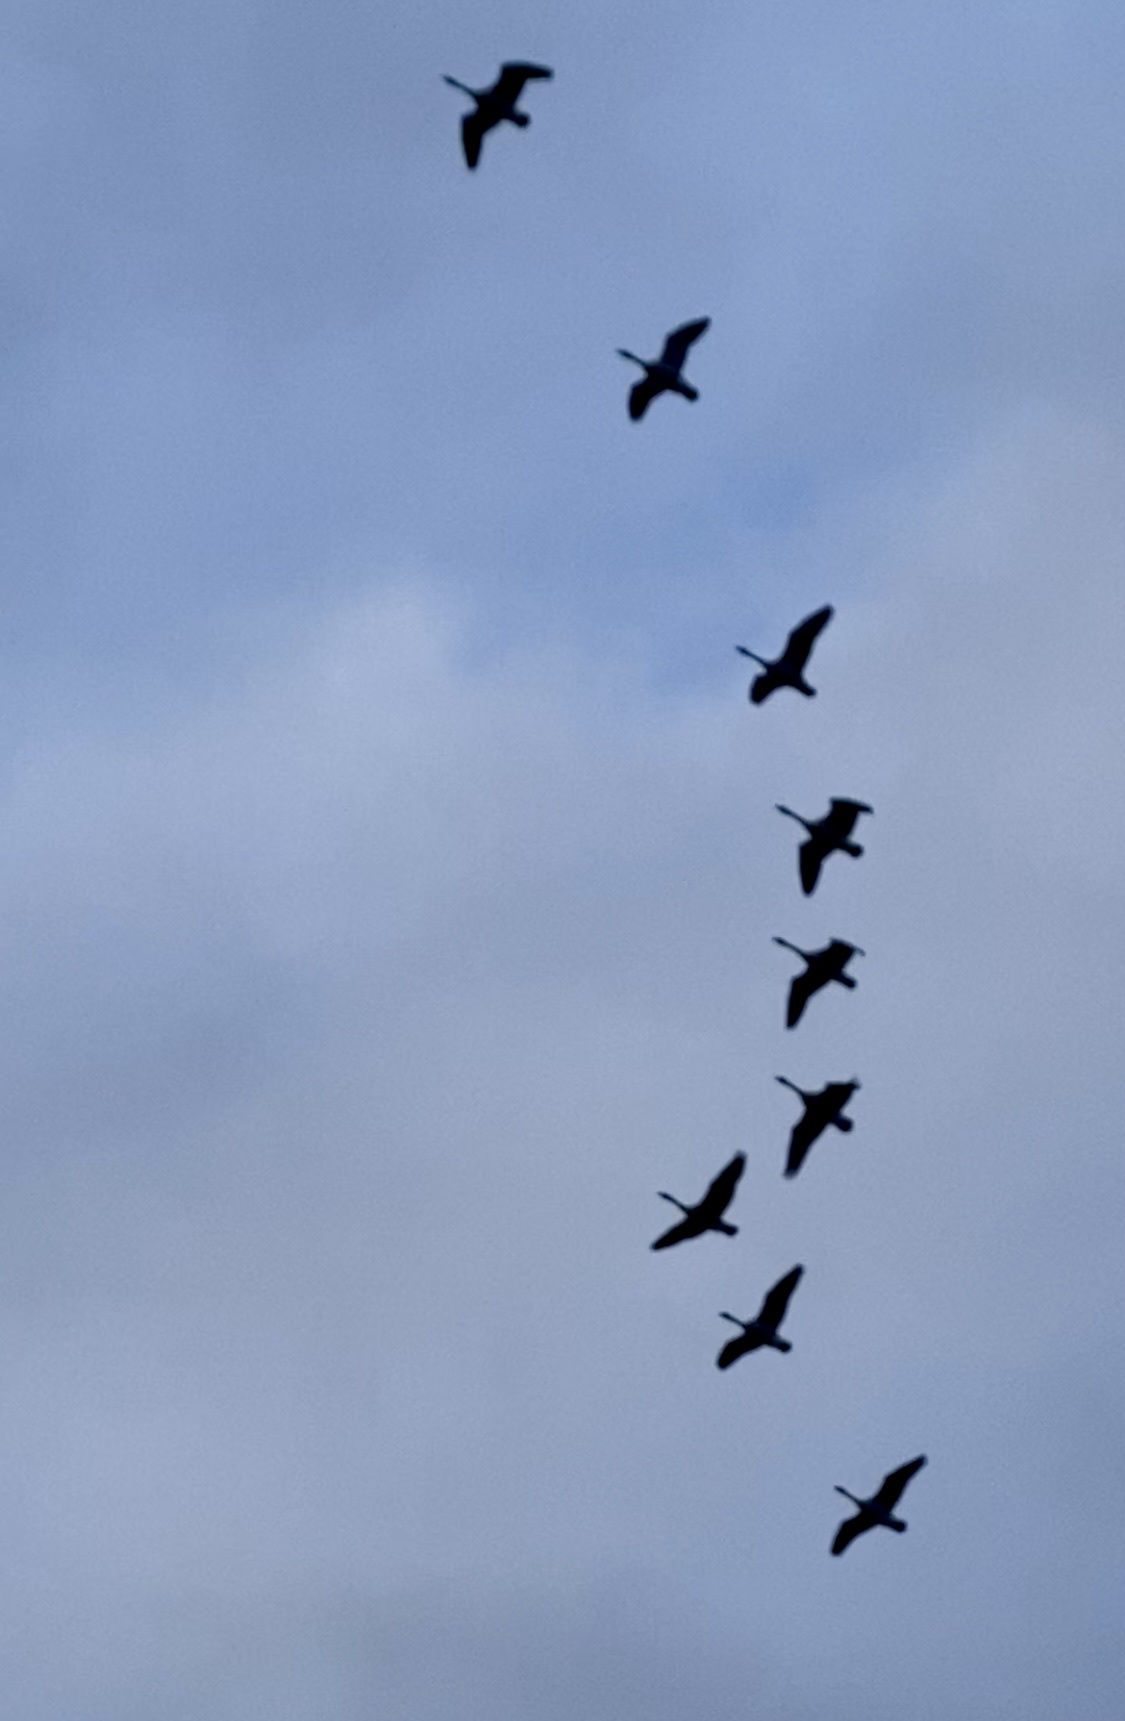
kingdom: Animalia
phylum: Chordata
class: Aves
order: Anseriformes
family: Anatidae
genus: Branta
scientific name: Branta canadensis
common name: Canada goose
